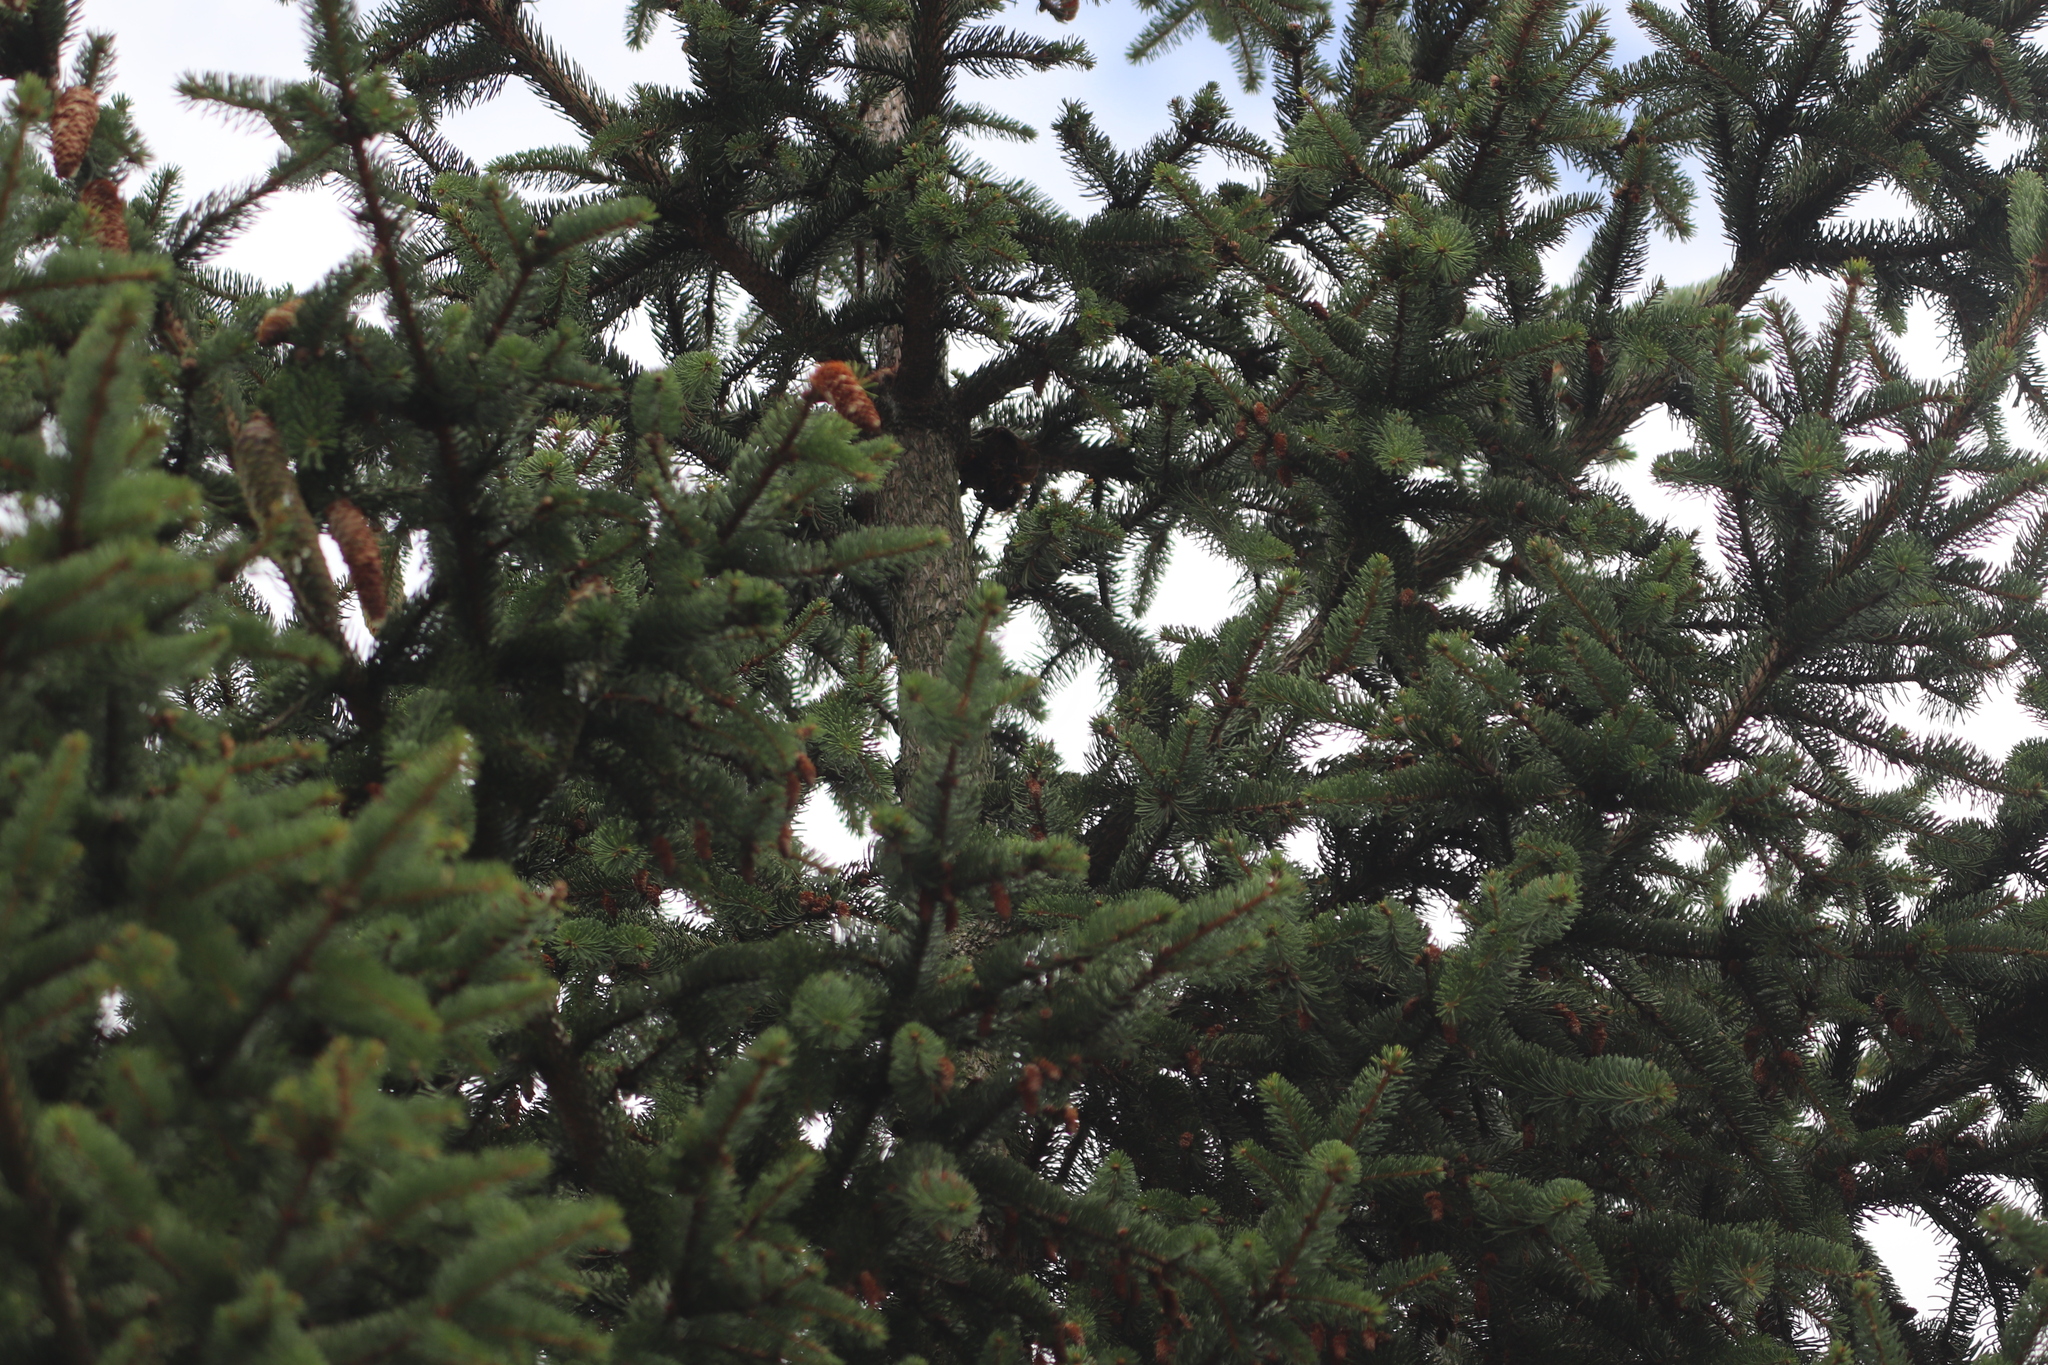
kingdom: Animalia
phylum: Arthropoda
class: Insecta
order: Hymenoptera
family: Vespidae
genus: Vespa
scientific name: Vespa velutina
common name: Asian hornet
